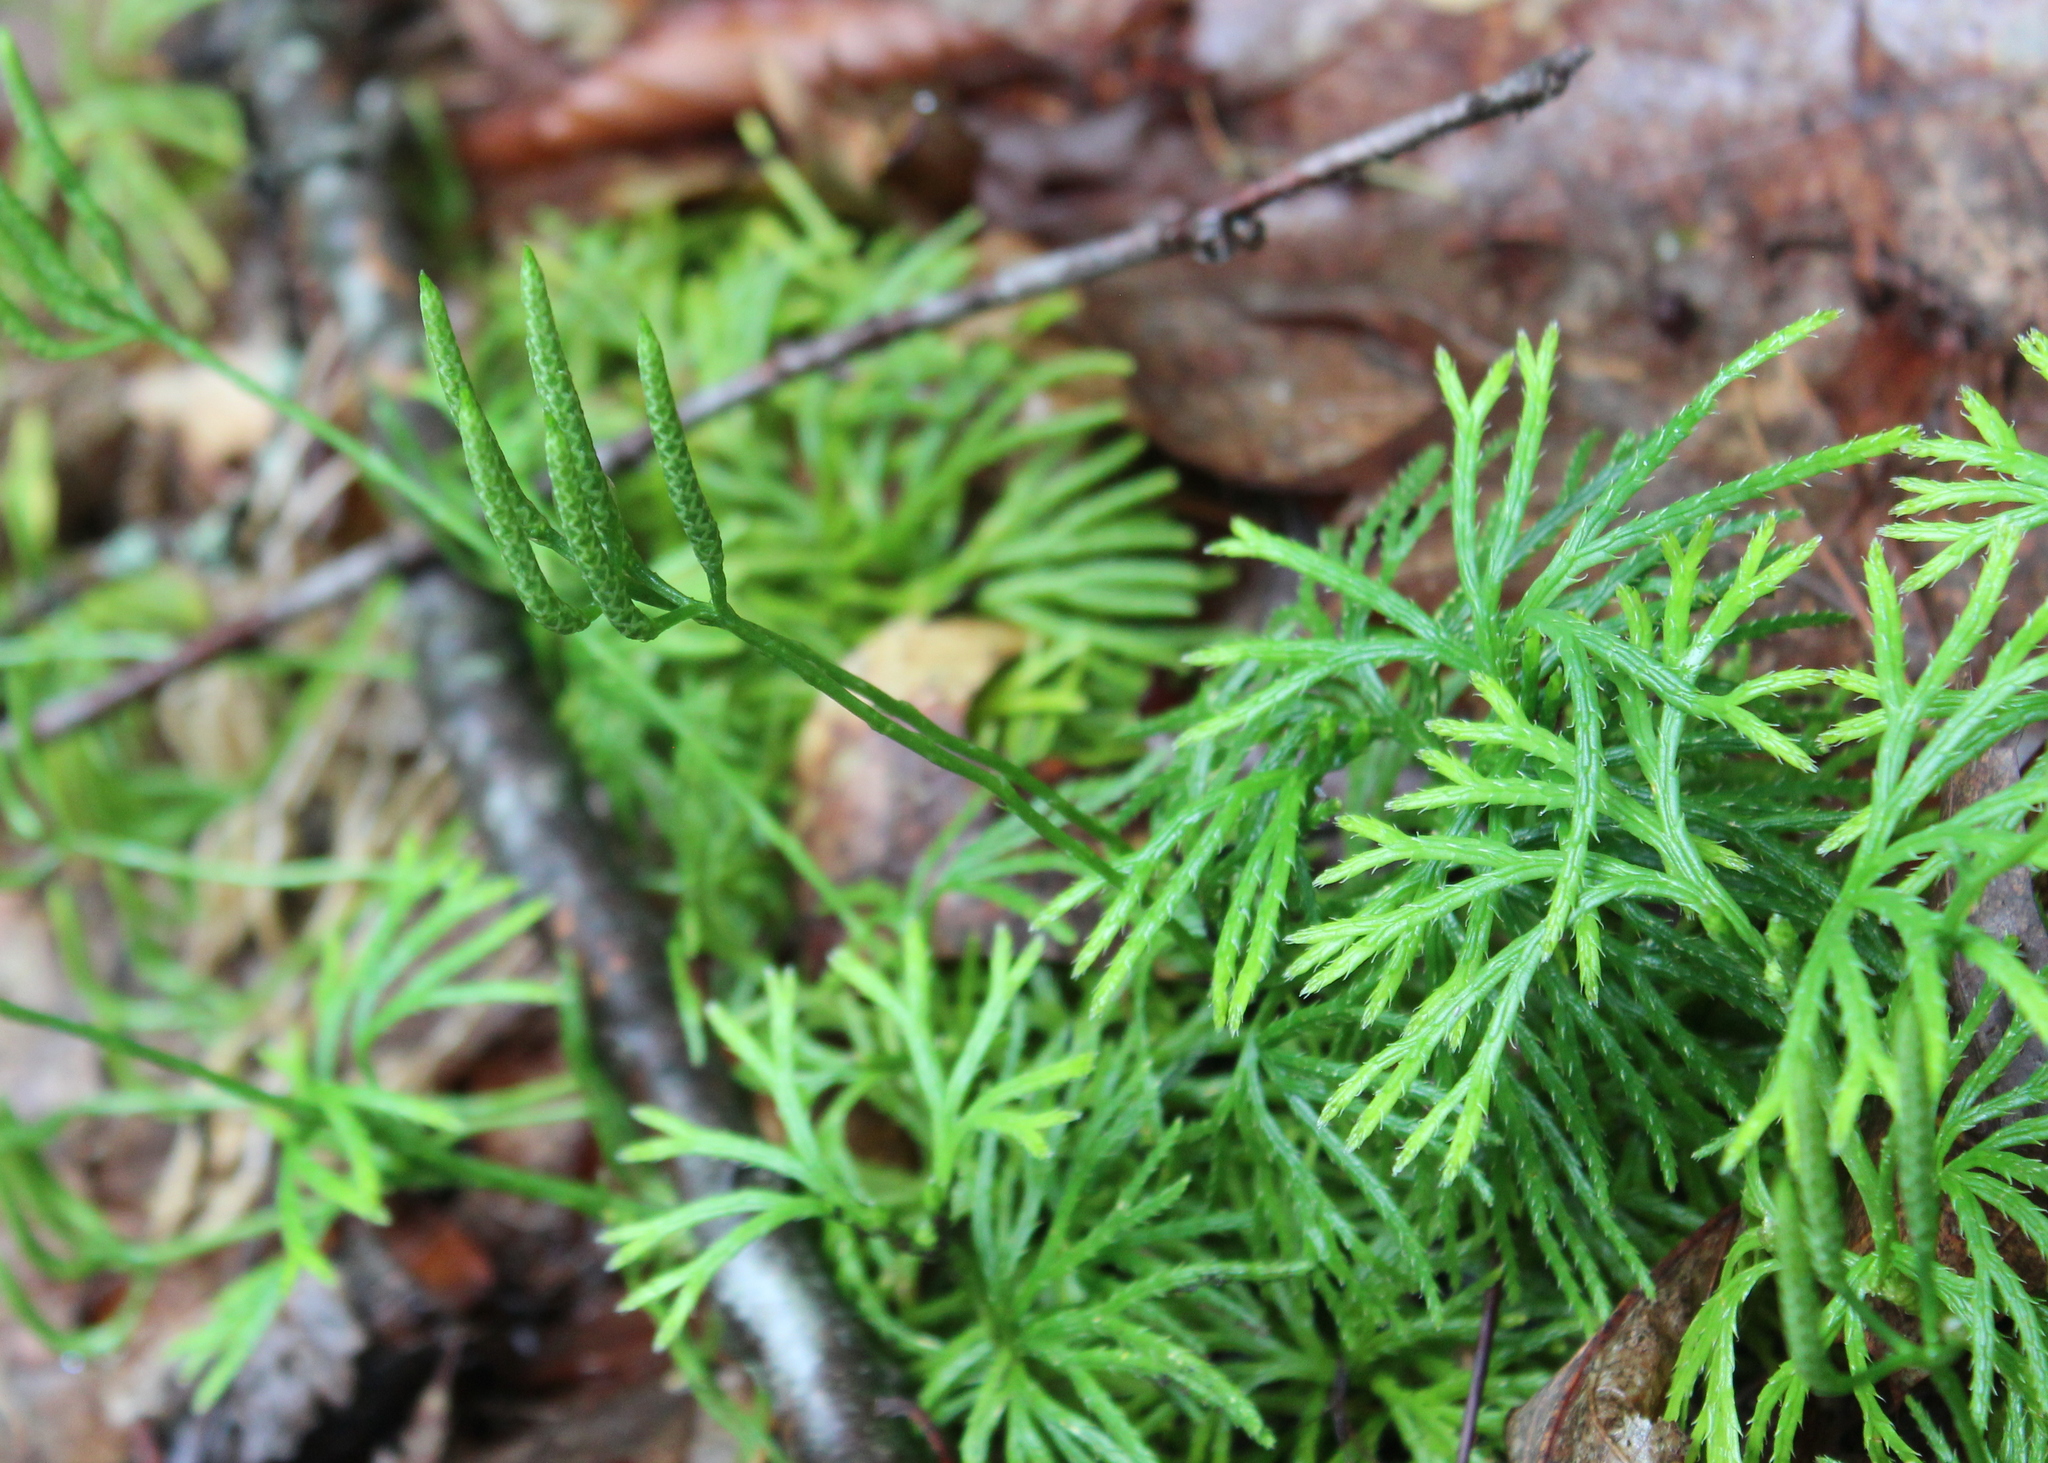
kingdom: Plantae
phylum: Tracheophyta
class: Lycopodiopsida
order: Lycopodiales
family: Lycopodiaceae
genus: Diphasiastrum
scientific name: Diphasiastrum digitatum
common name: Southern running-pine
